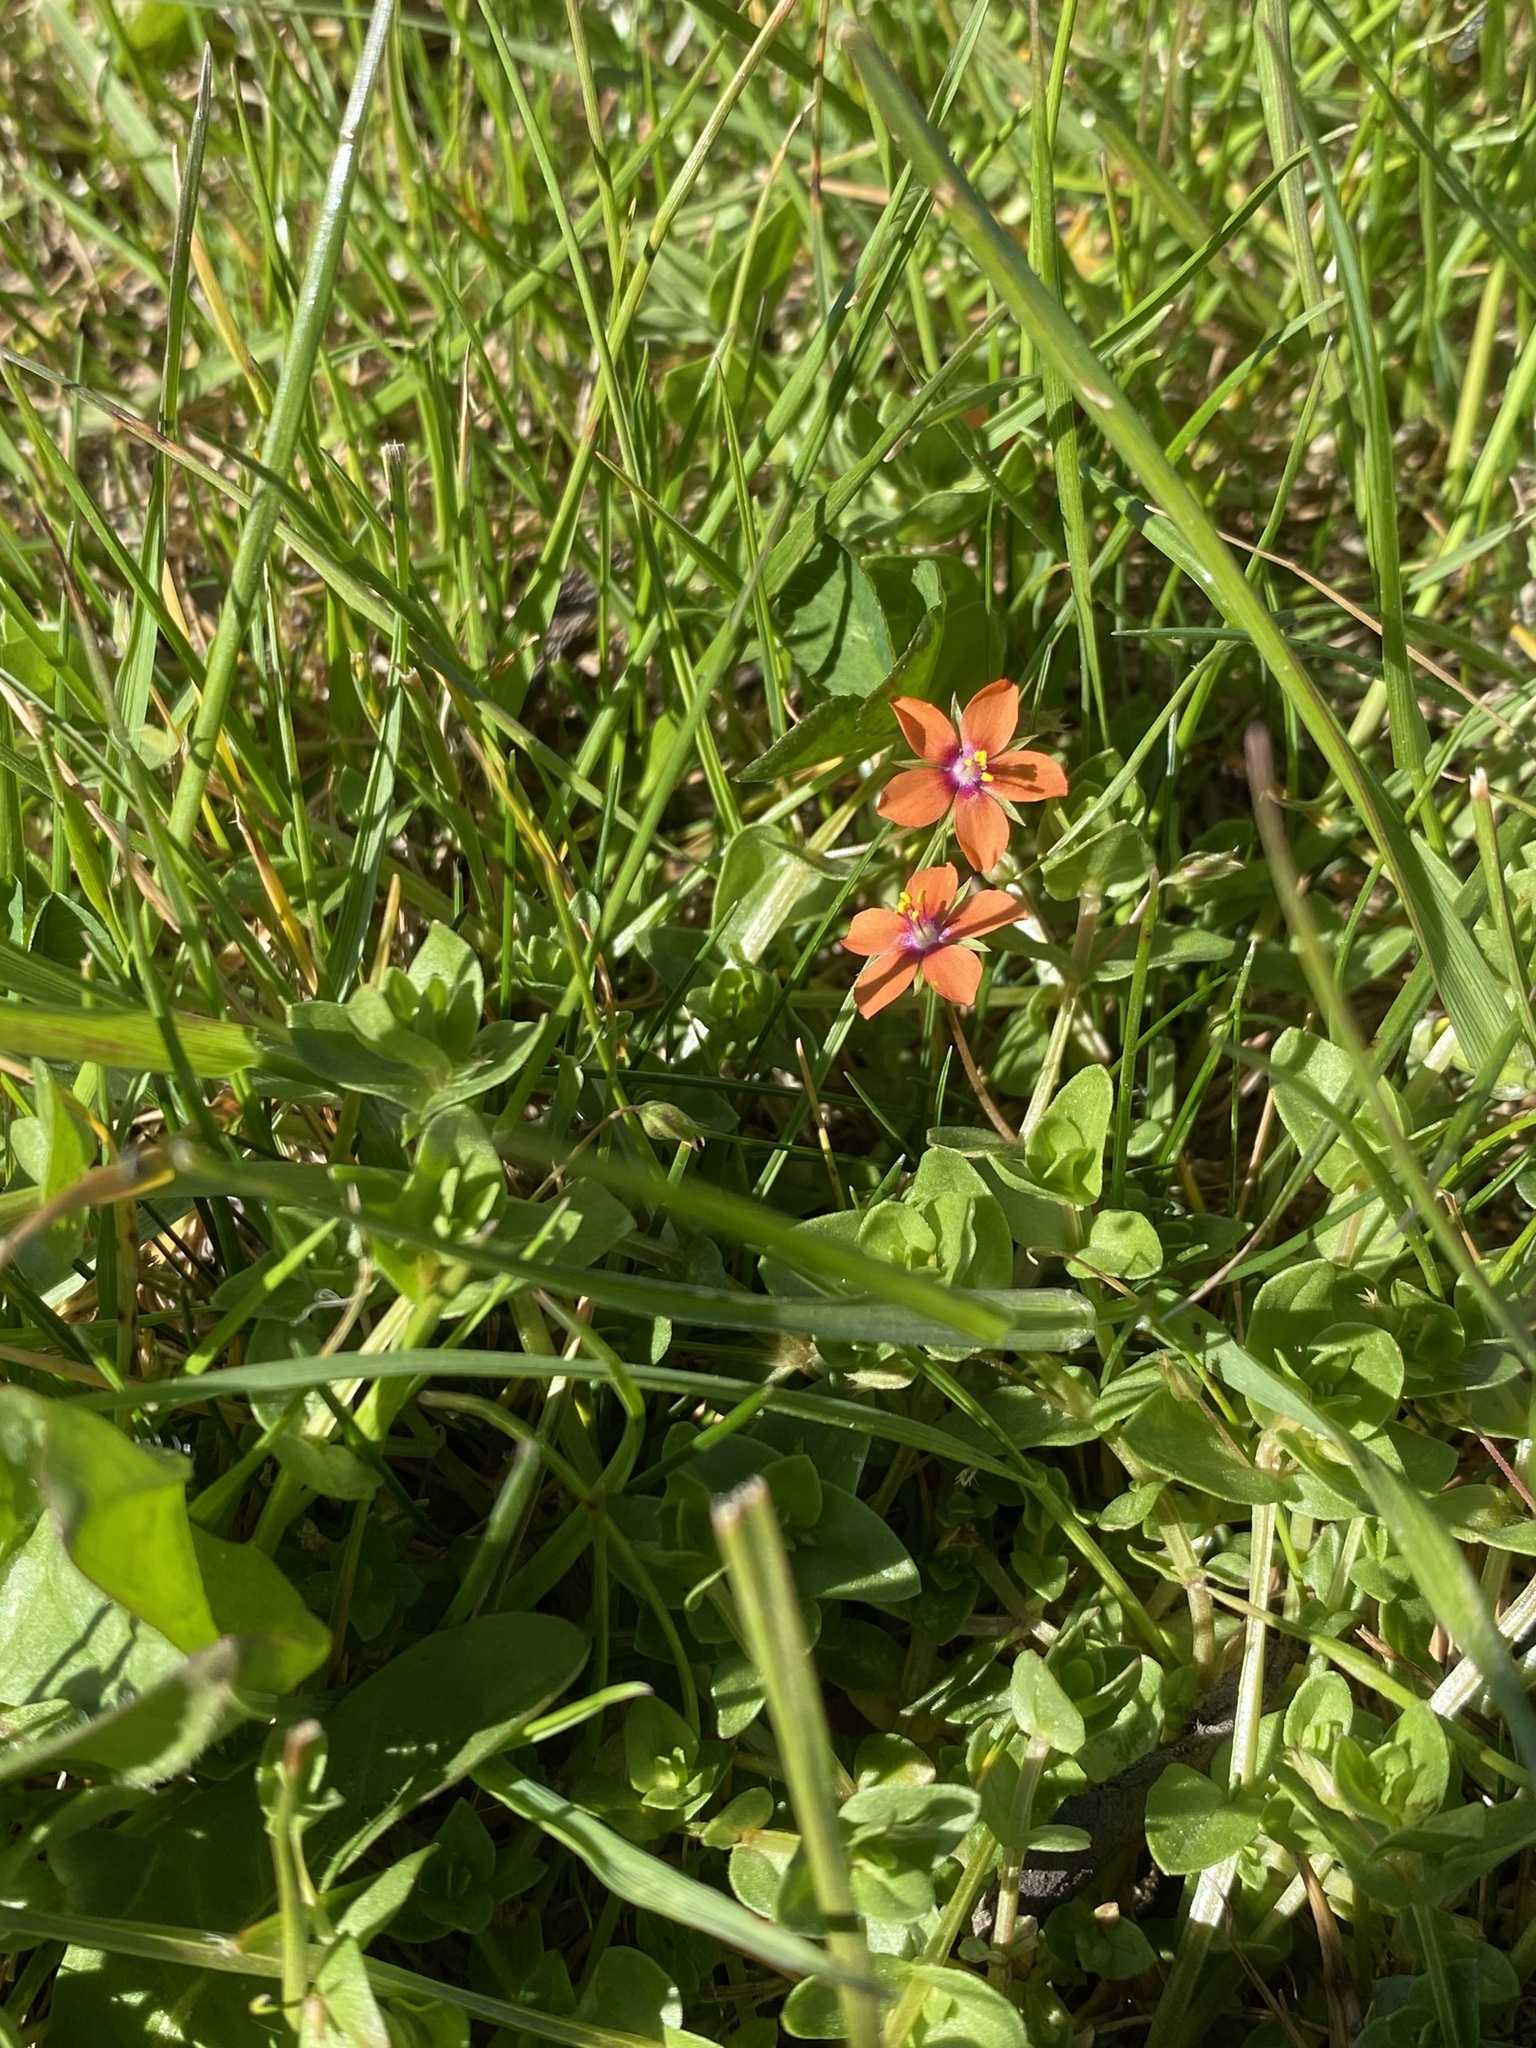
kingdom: Plantae
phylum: Tracheophyta
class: Magnoliopsida
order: Ericales
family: Primulaceae
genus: Lysimachia
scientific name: Lysimachia arvensis
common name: Scarlet pimpernel
